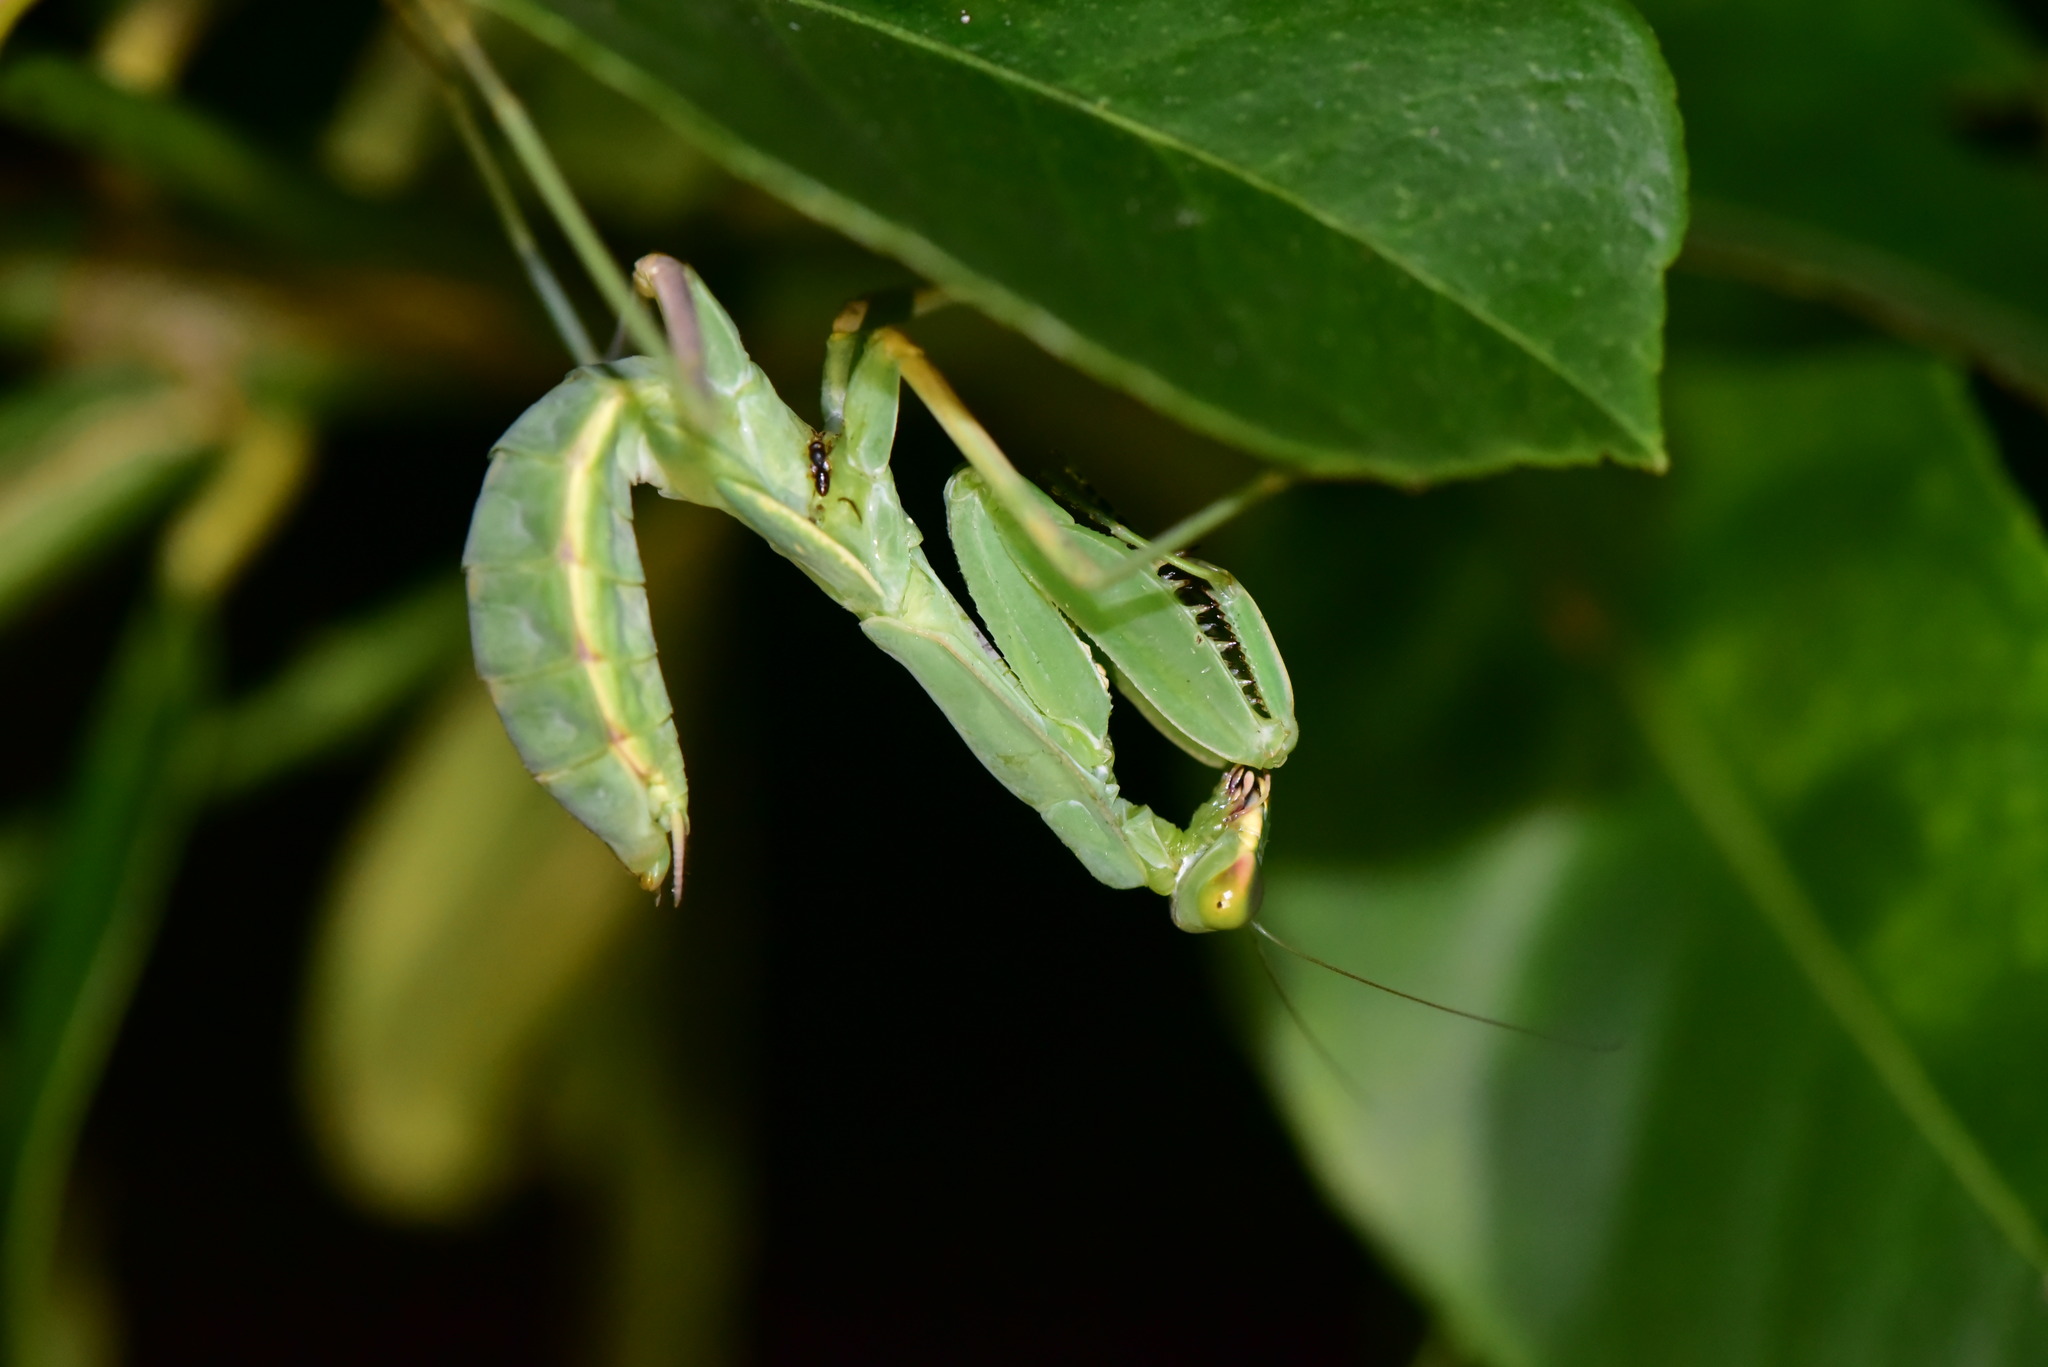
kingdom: Animalia
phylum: Arthropoda
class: Insecta
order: Mantodea
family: Mantidae
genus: Hierodula
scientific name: Hierodula patellifera
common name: Asian mantis
